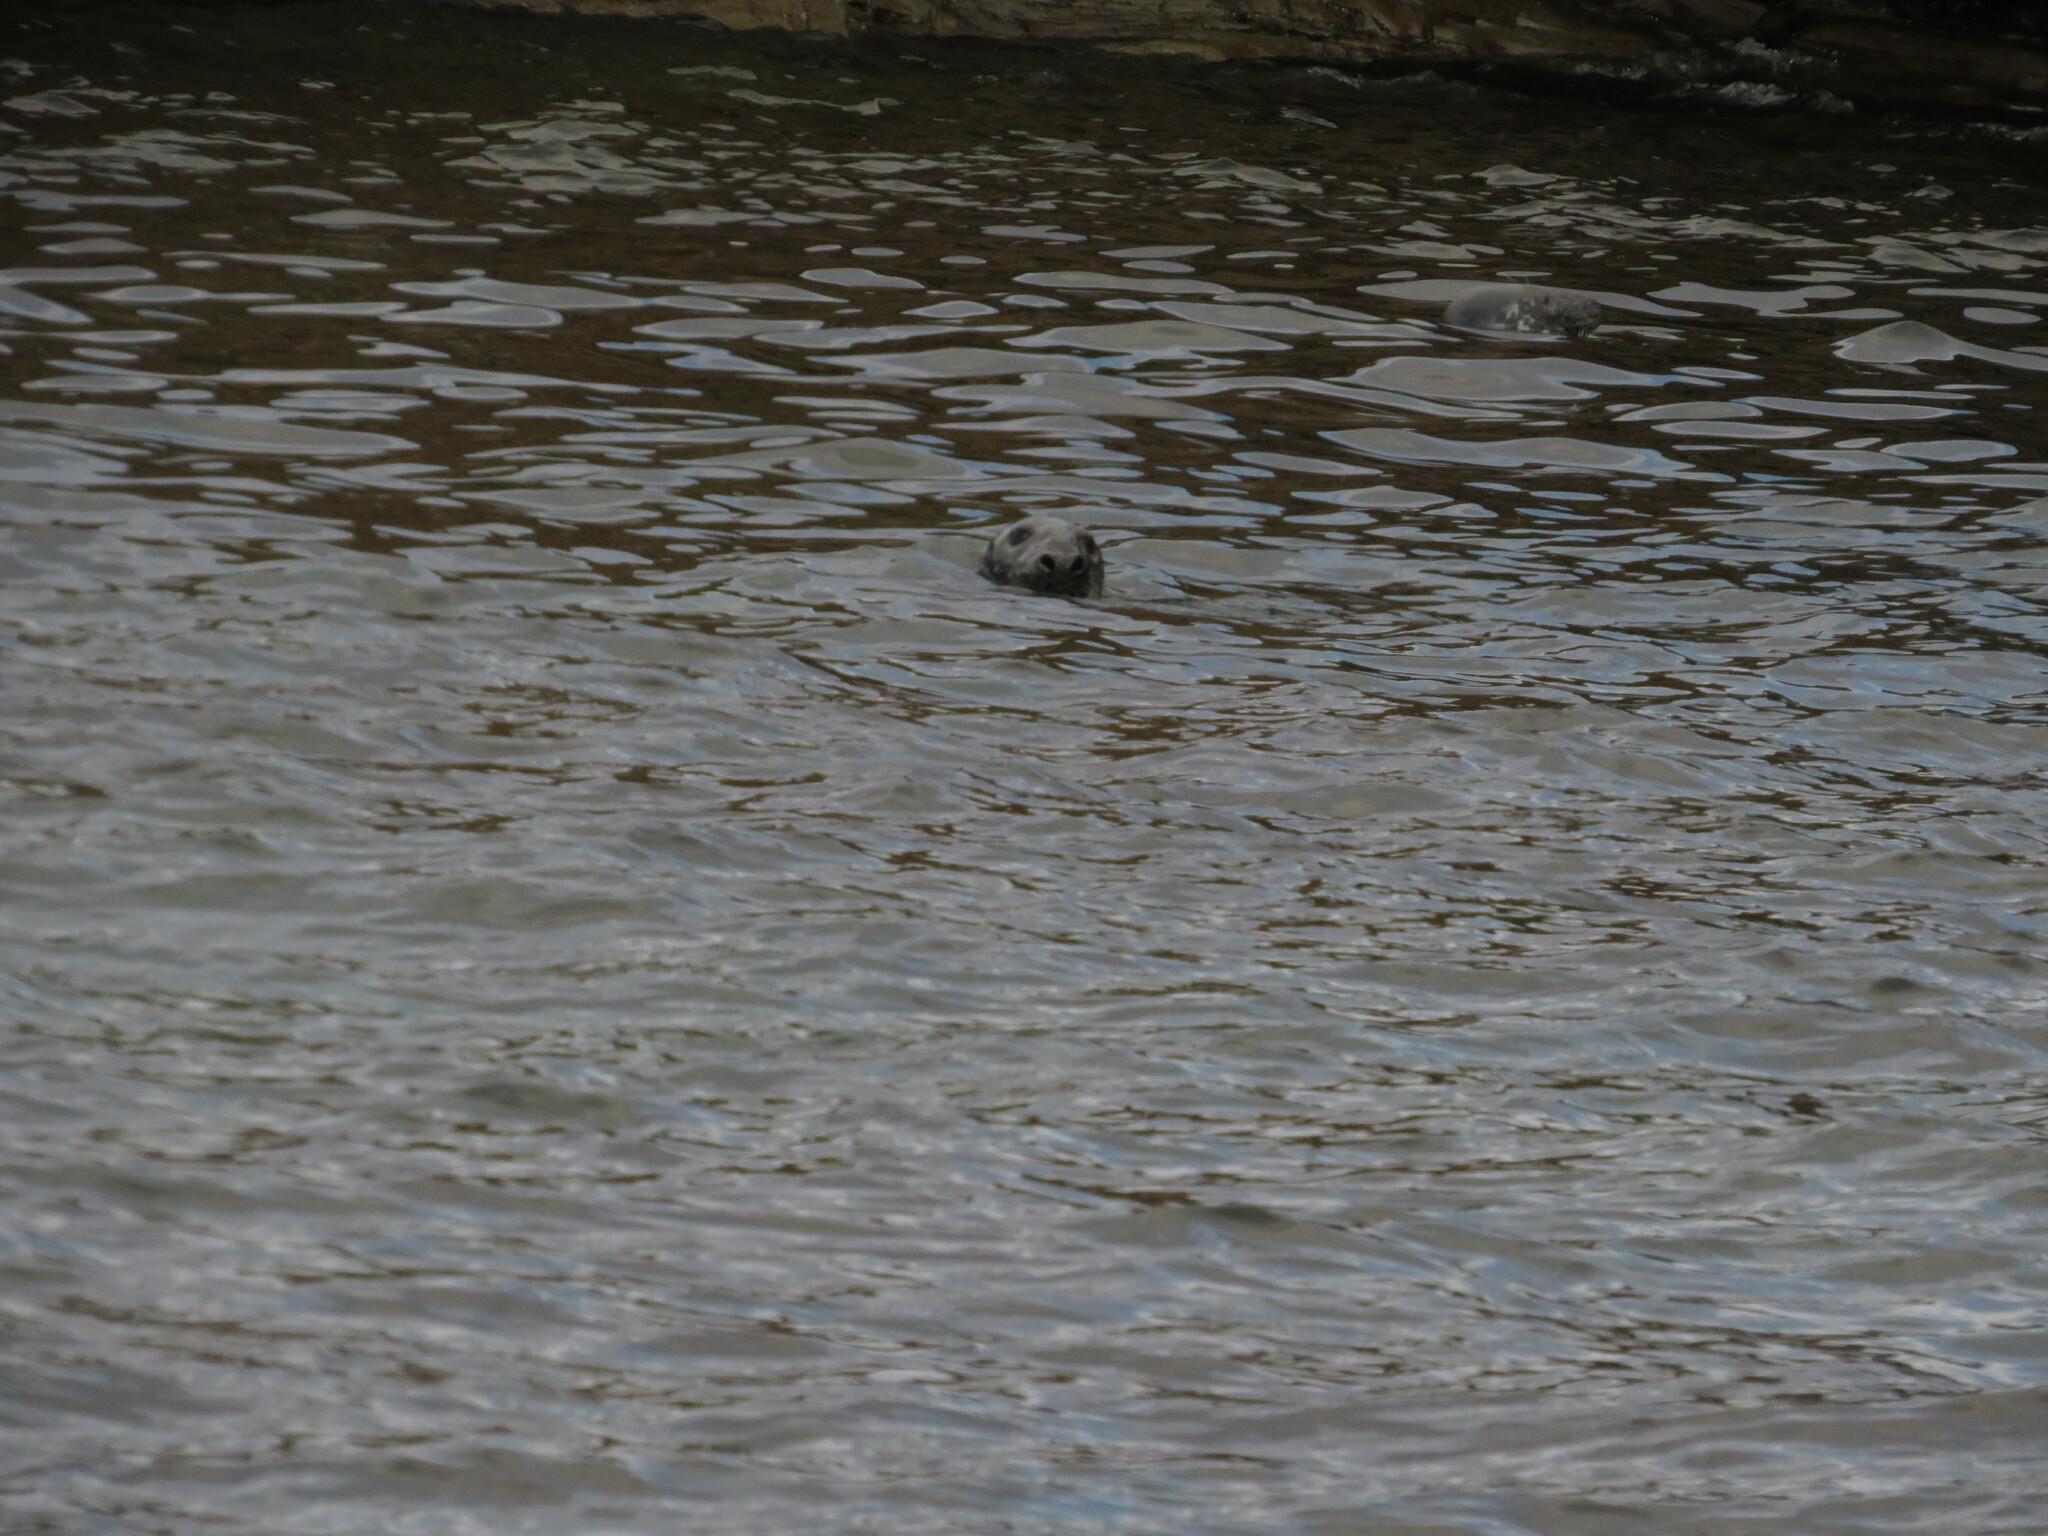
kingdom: Animalia
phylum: Chordata
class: Mammalia
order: Carnivora
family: Phocidae
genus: Halichoerus
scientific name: Halichoerus grypus
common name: Grey seal
